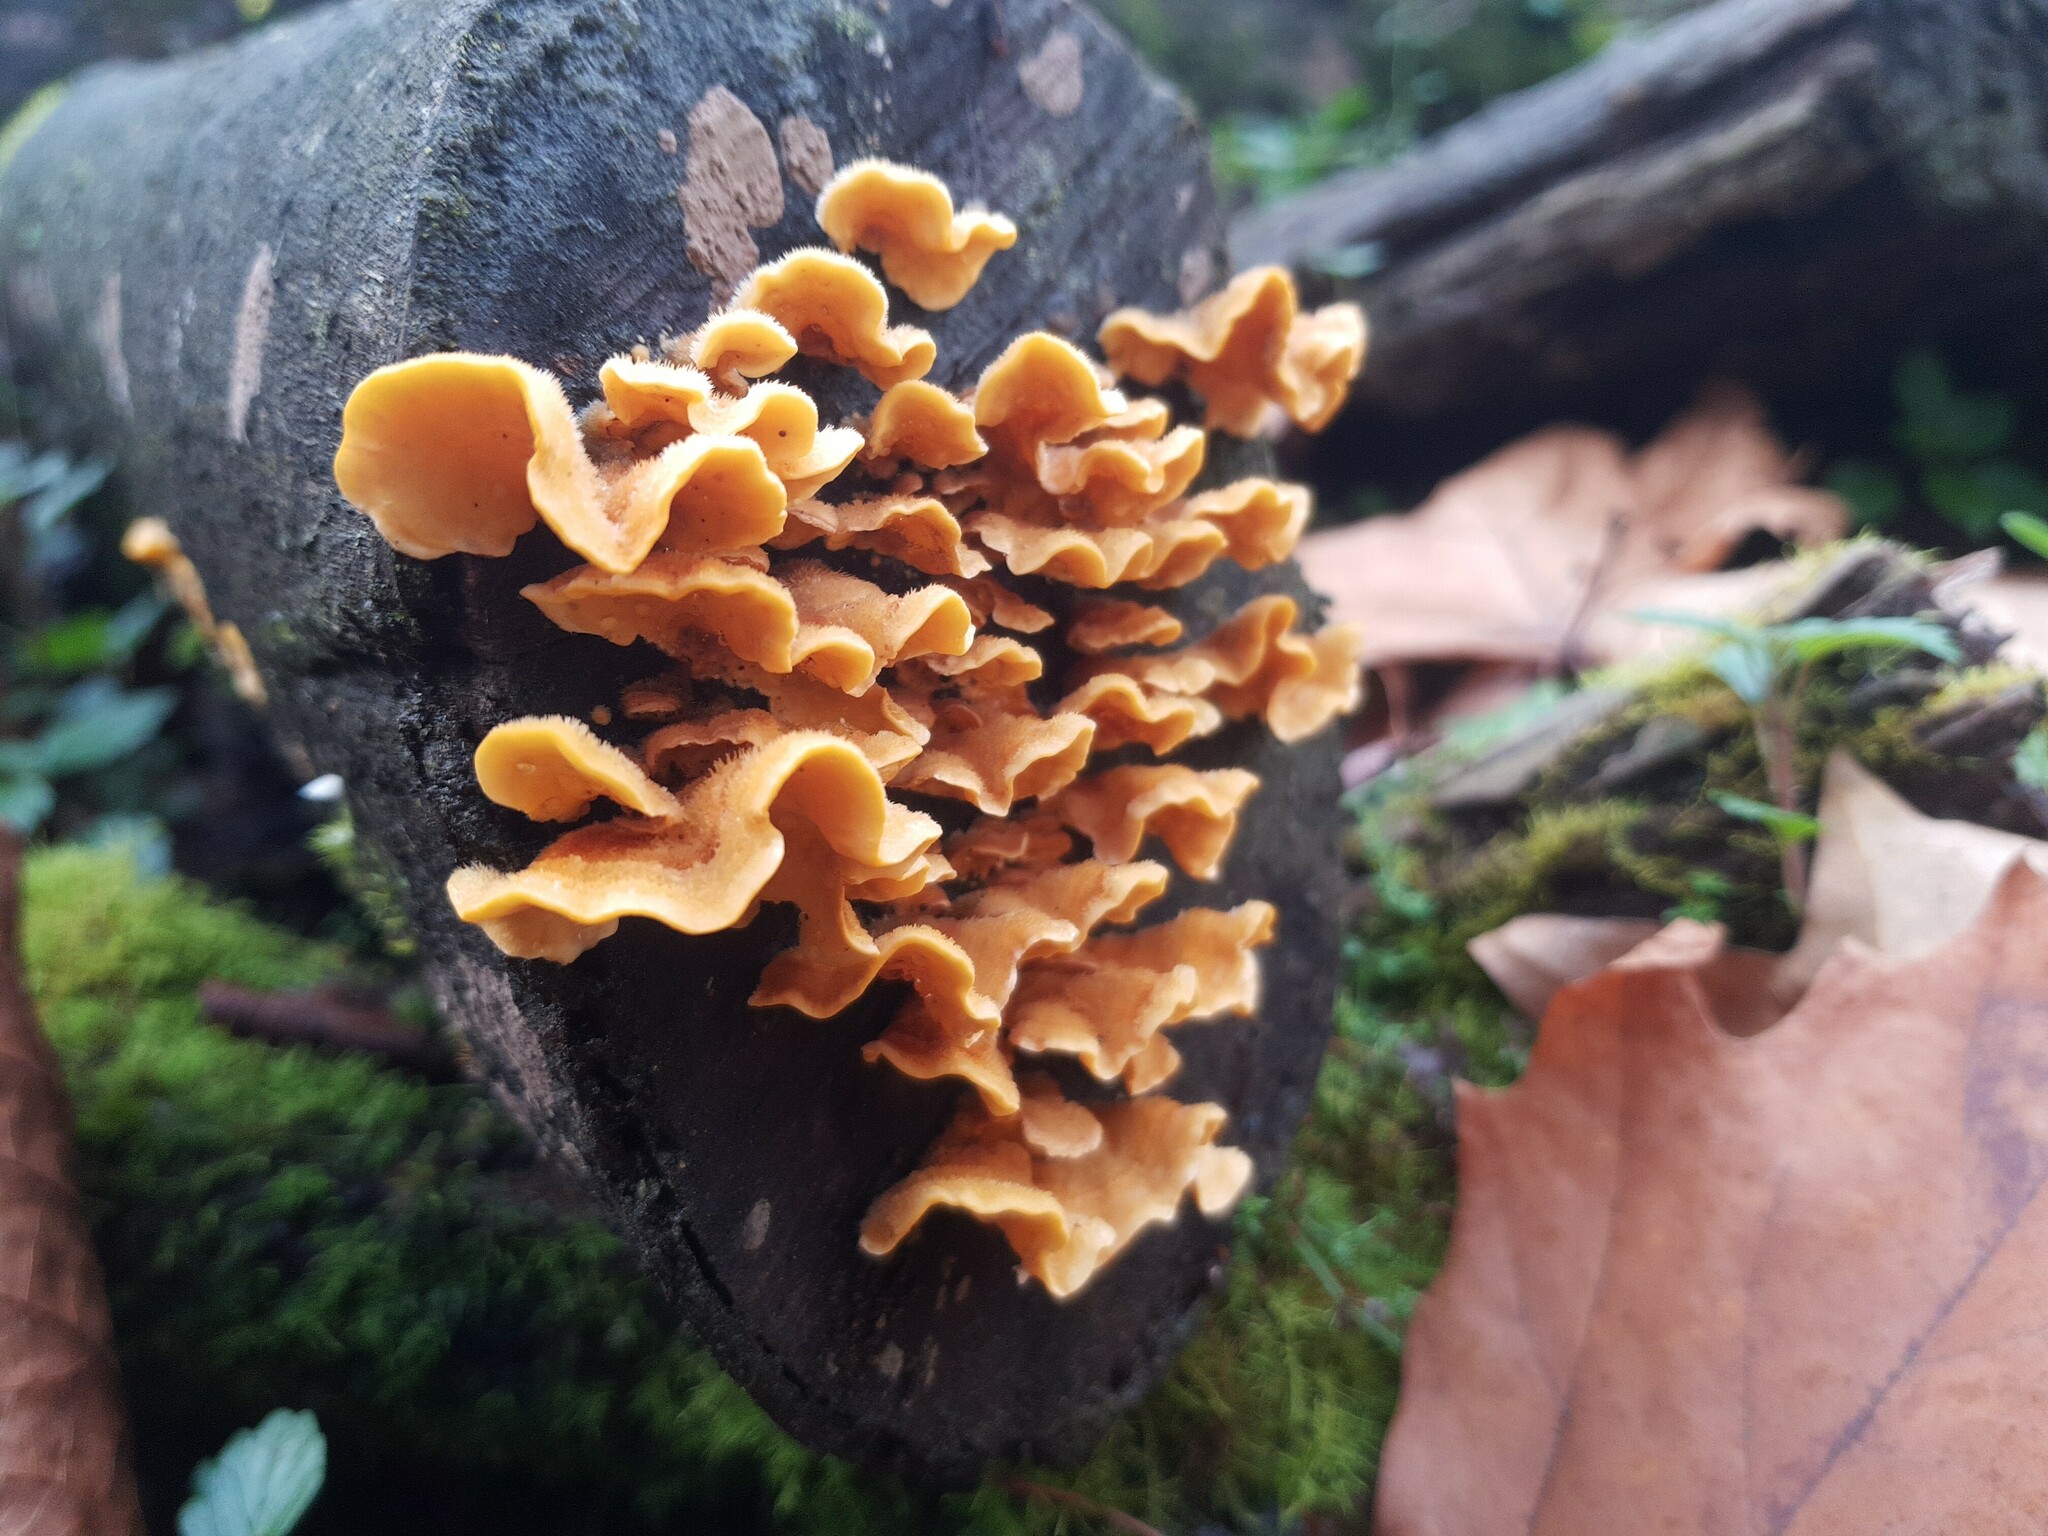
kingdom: Fungi
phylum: Basidiomycota
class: Agaricomycetes
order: Russulales
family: Stereaceae
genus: Stereum
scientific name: Stereum hirsutum
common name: Hairy curtain crust
